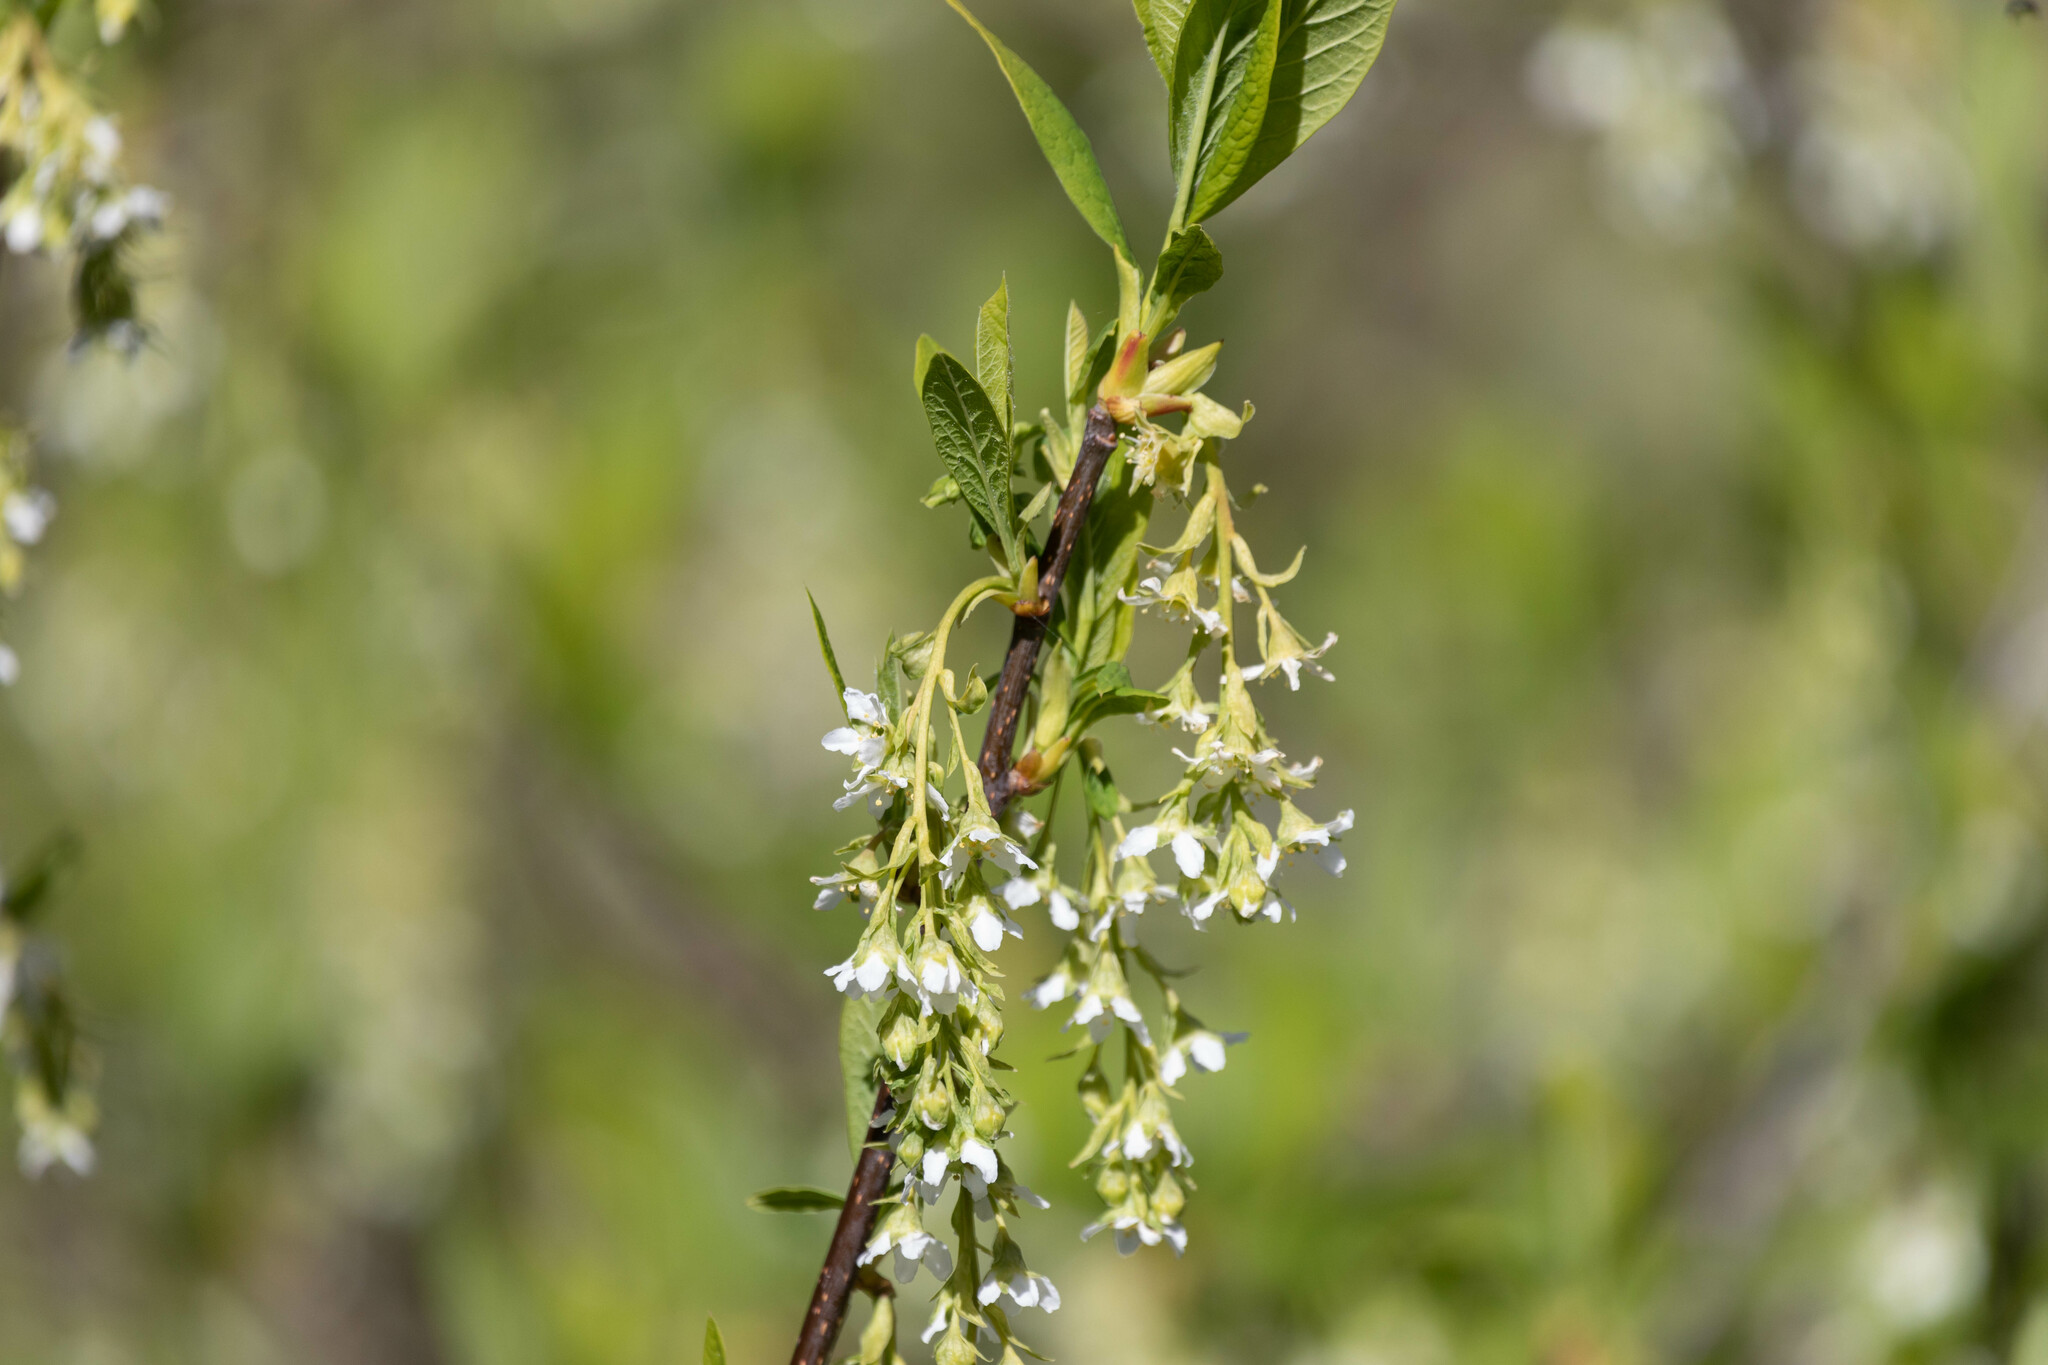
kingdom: Plantae
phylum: Tracheophyta
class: Magnoliopsida
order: Rosales
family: Rosaceae
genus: Oemleria
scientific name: Oemleria cerasiformis
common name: Osoberry
